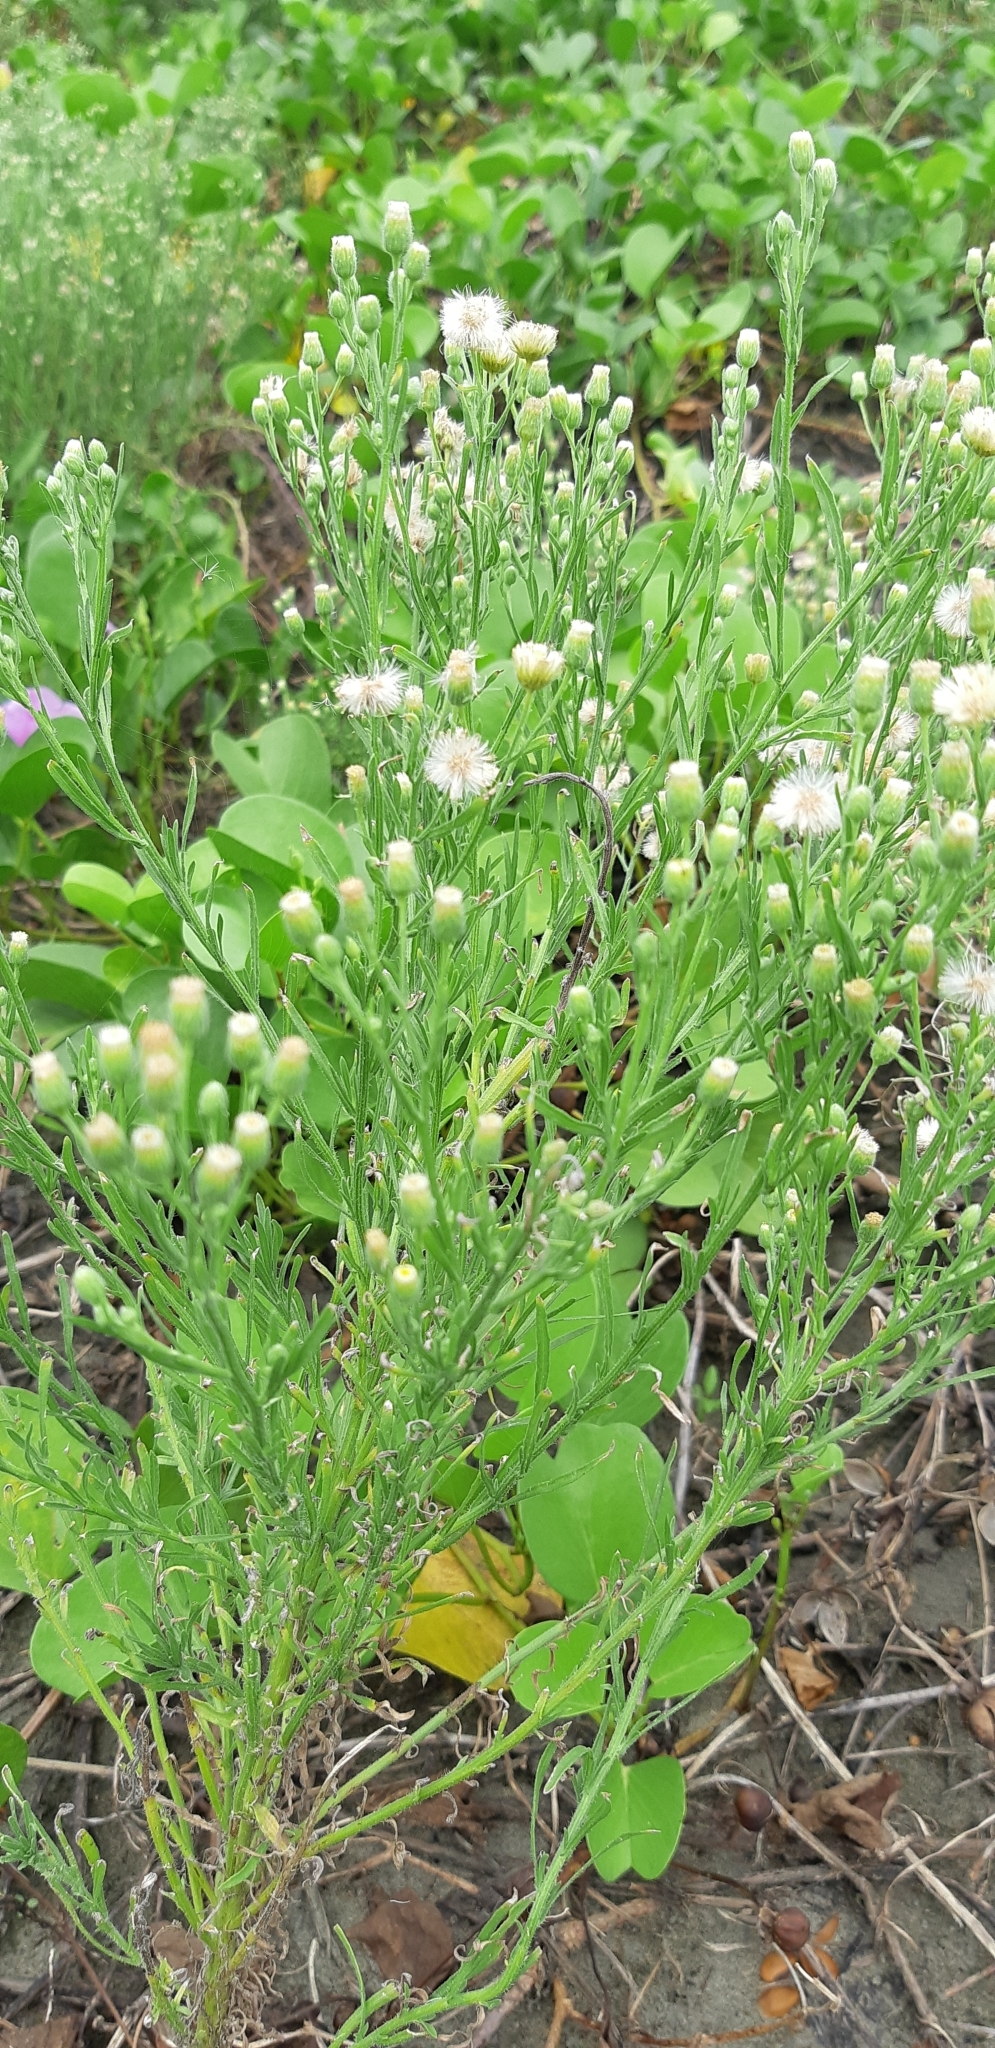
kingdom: Plantae
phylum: Tracheophyta
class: Magnoliopsida
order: Asterales
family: Asteraceae
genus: Erigeron
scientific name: Erigeron bonariensis
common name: Argentine fleabane
